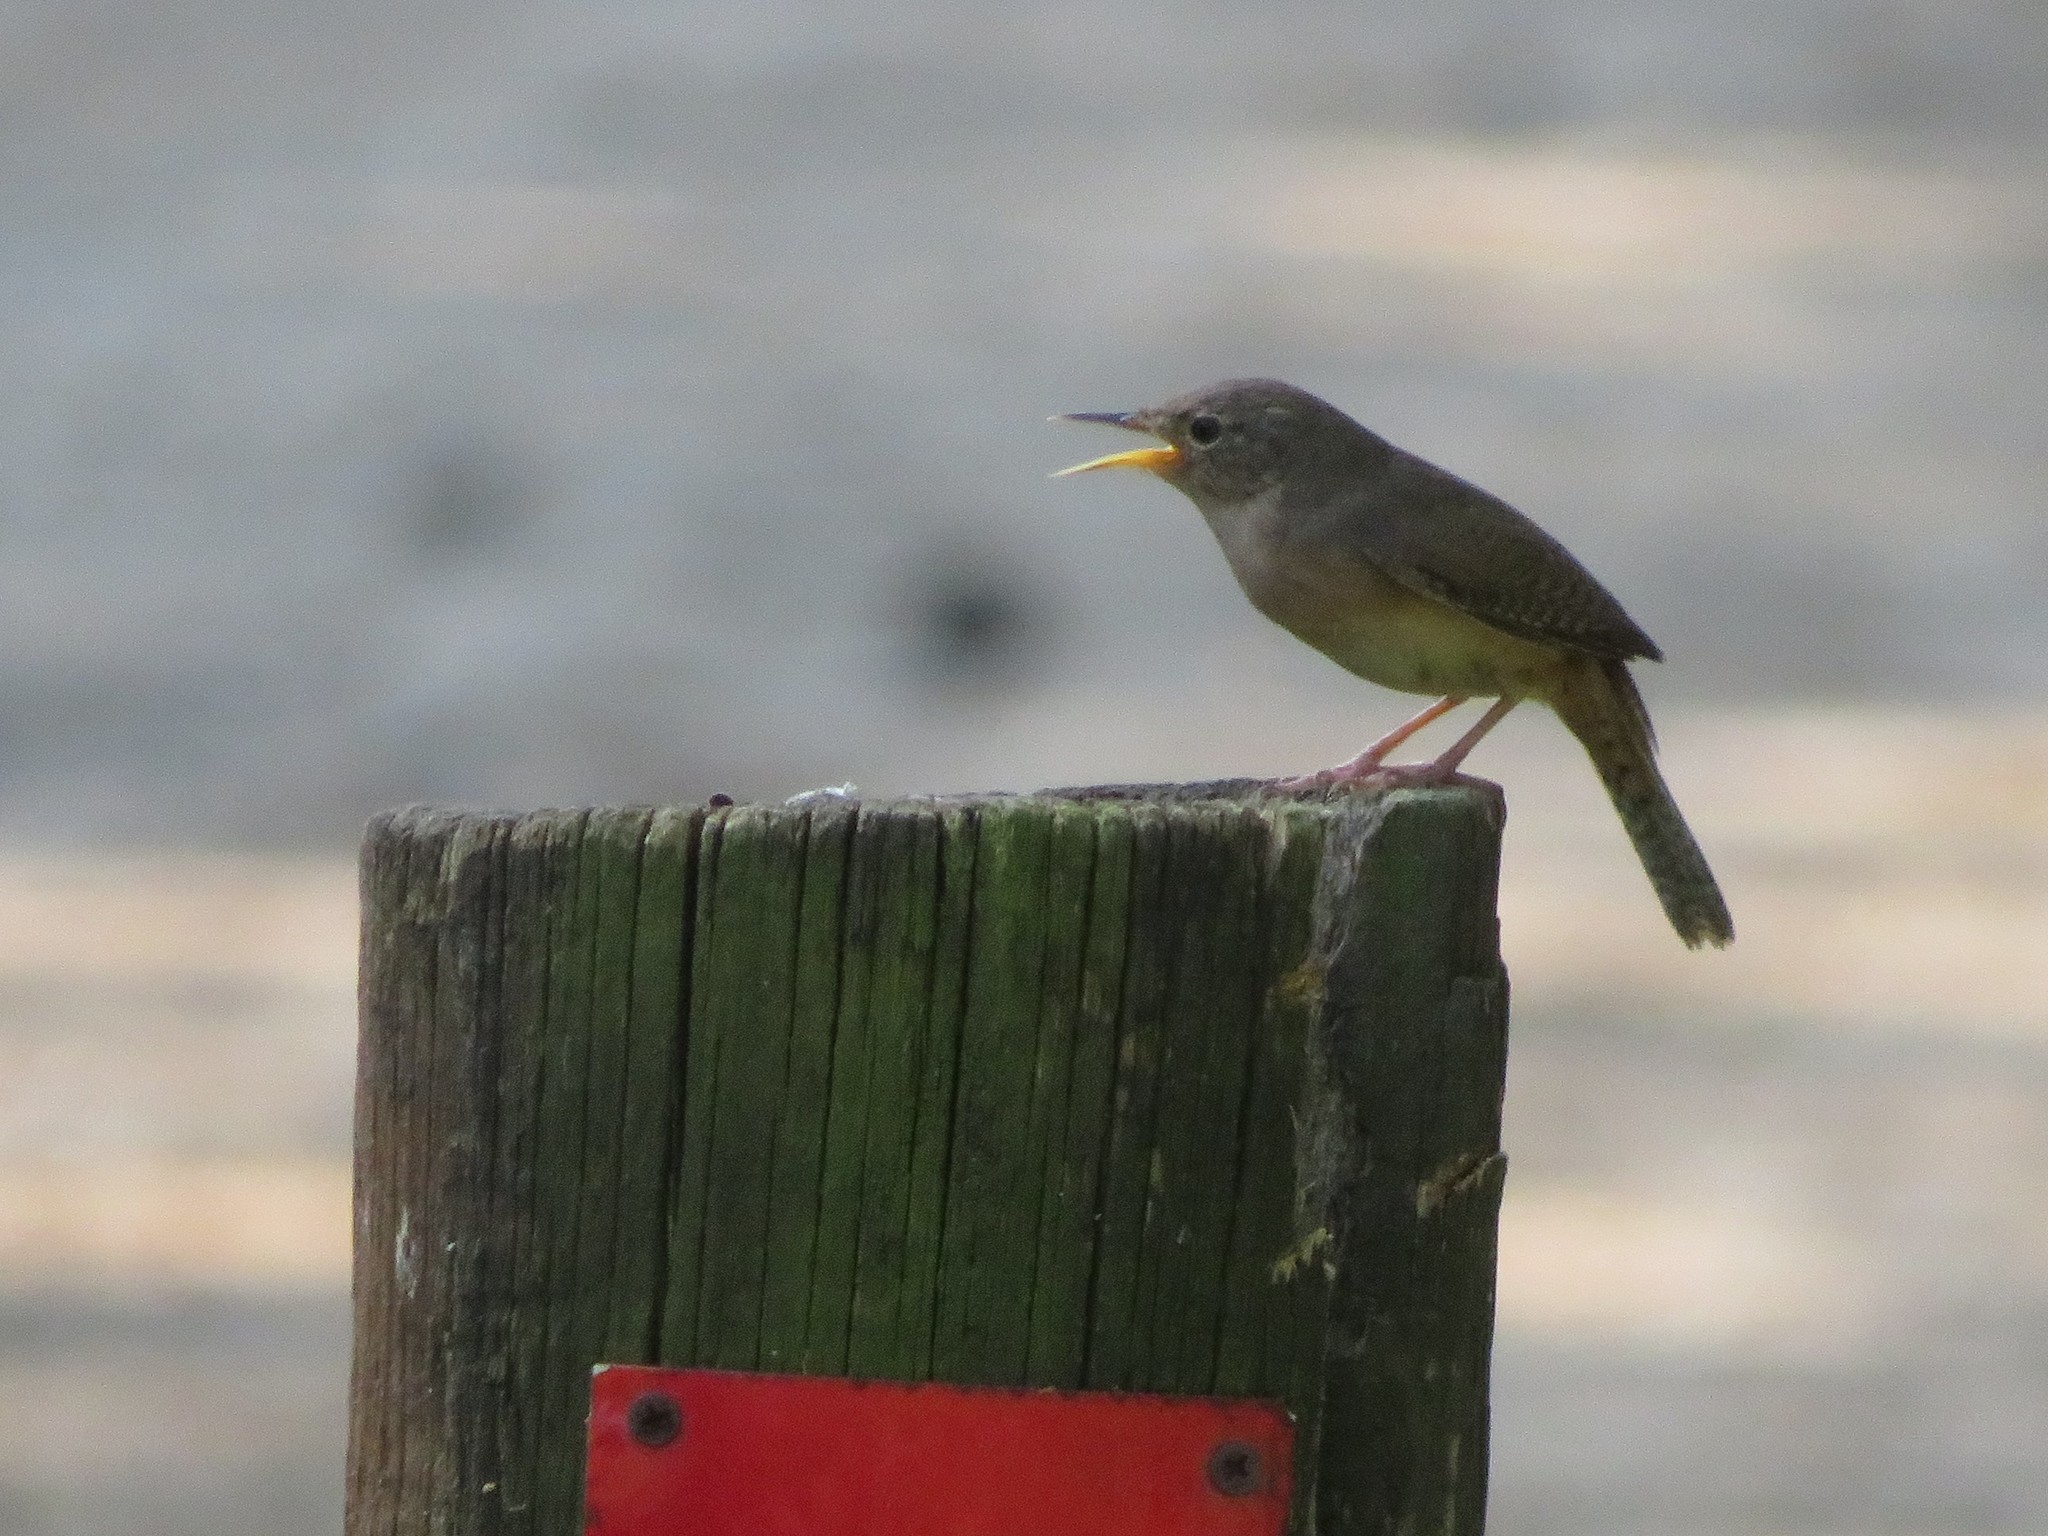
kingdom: Animalia
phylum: Chordata
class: Aves
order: Passeriformes
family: Troglodytidae
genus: Troglodytes
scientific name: Troglodytes aedon
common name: House wren
